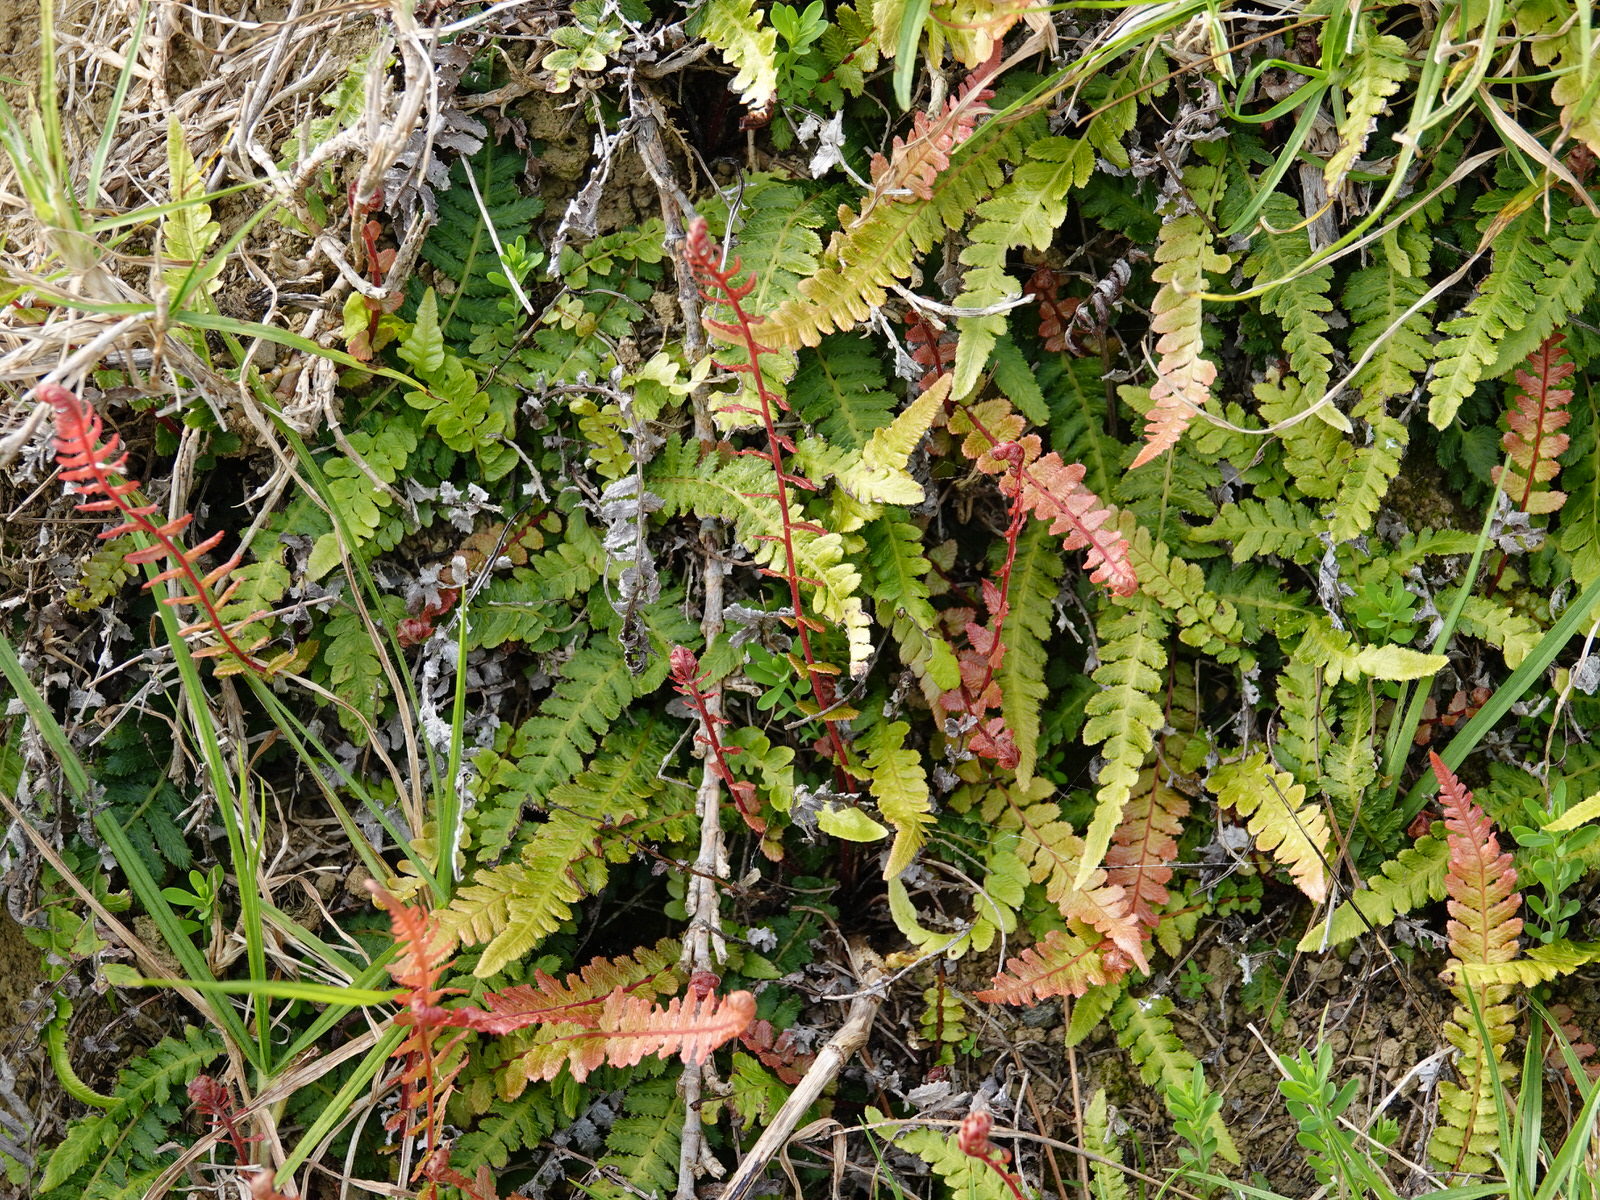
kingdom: Plantae
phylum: Tracheophyta
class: Polypodiopsida
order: Polypodiales
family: Blechnaceae
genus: Doodia
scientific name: Doodia australis
